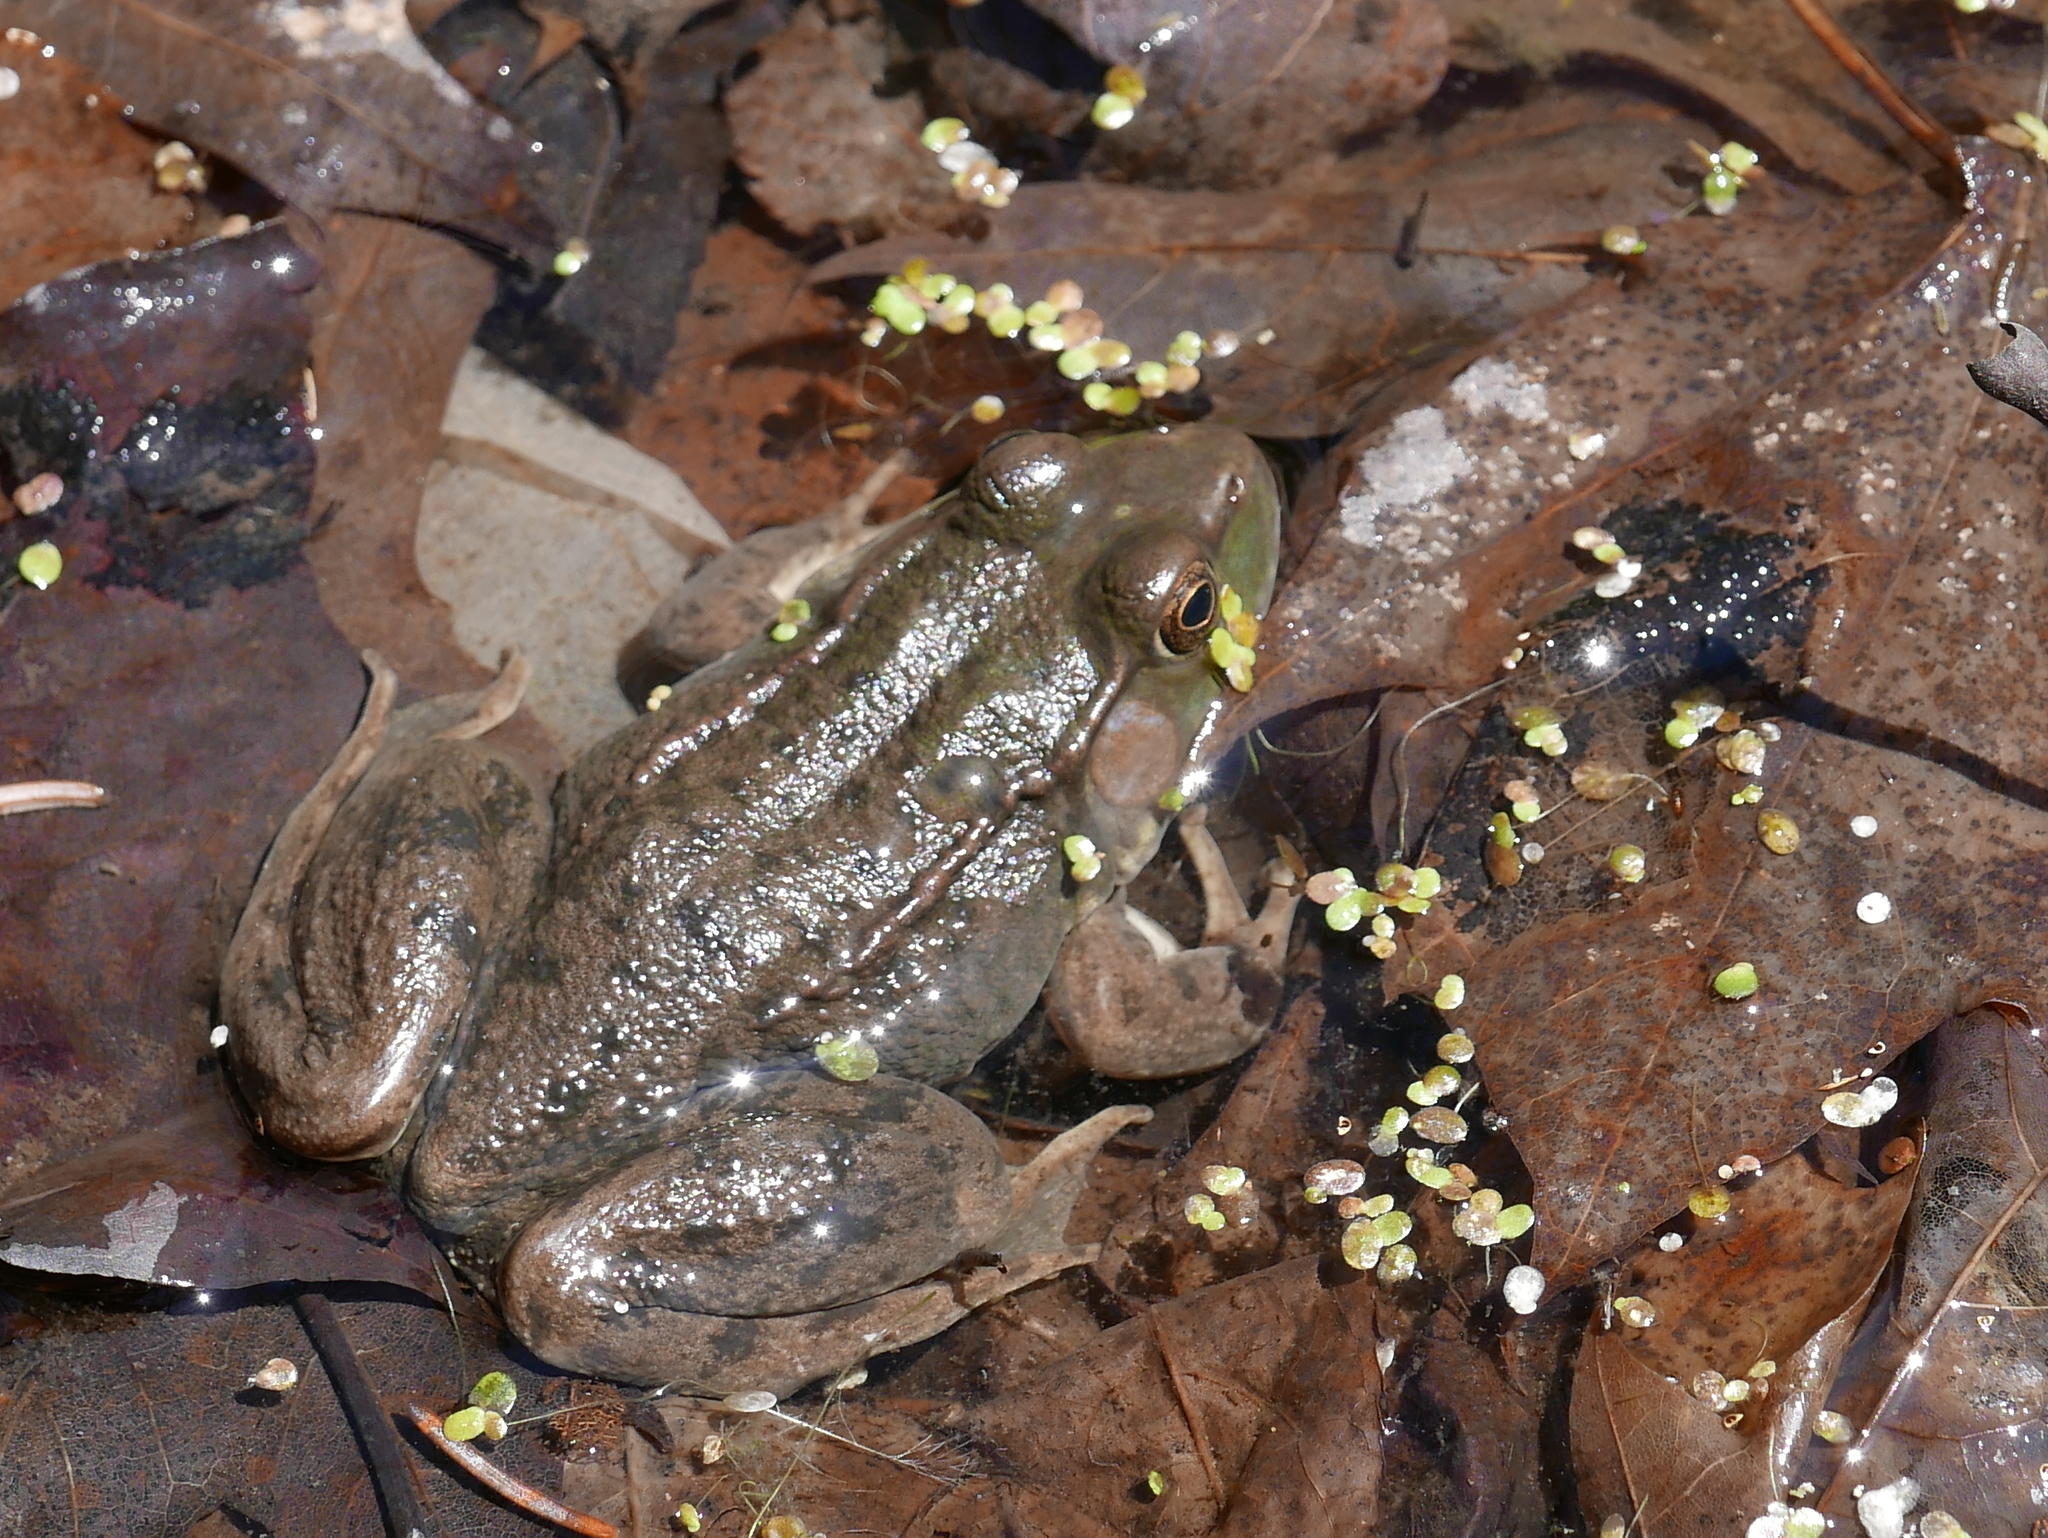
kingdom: Animalia
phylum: Chordata
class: Amphibia
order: Anura
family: Ranidae
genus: Lithobates
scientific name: Lithobates clamitans
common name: Green frog
